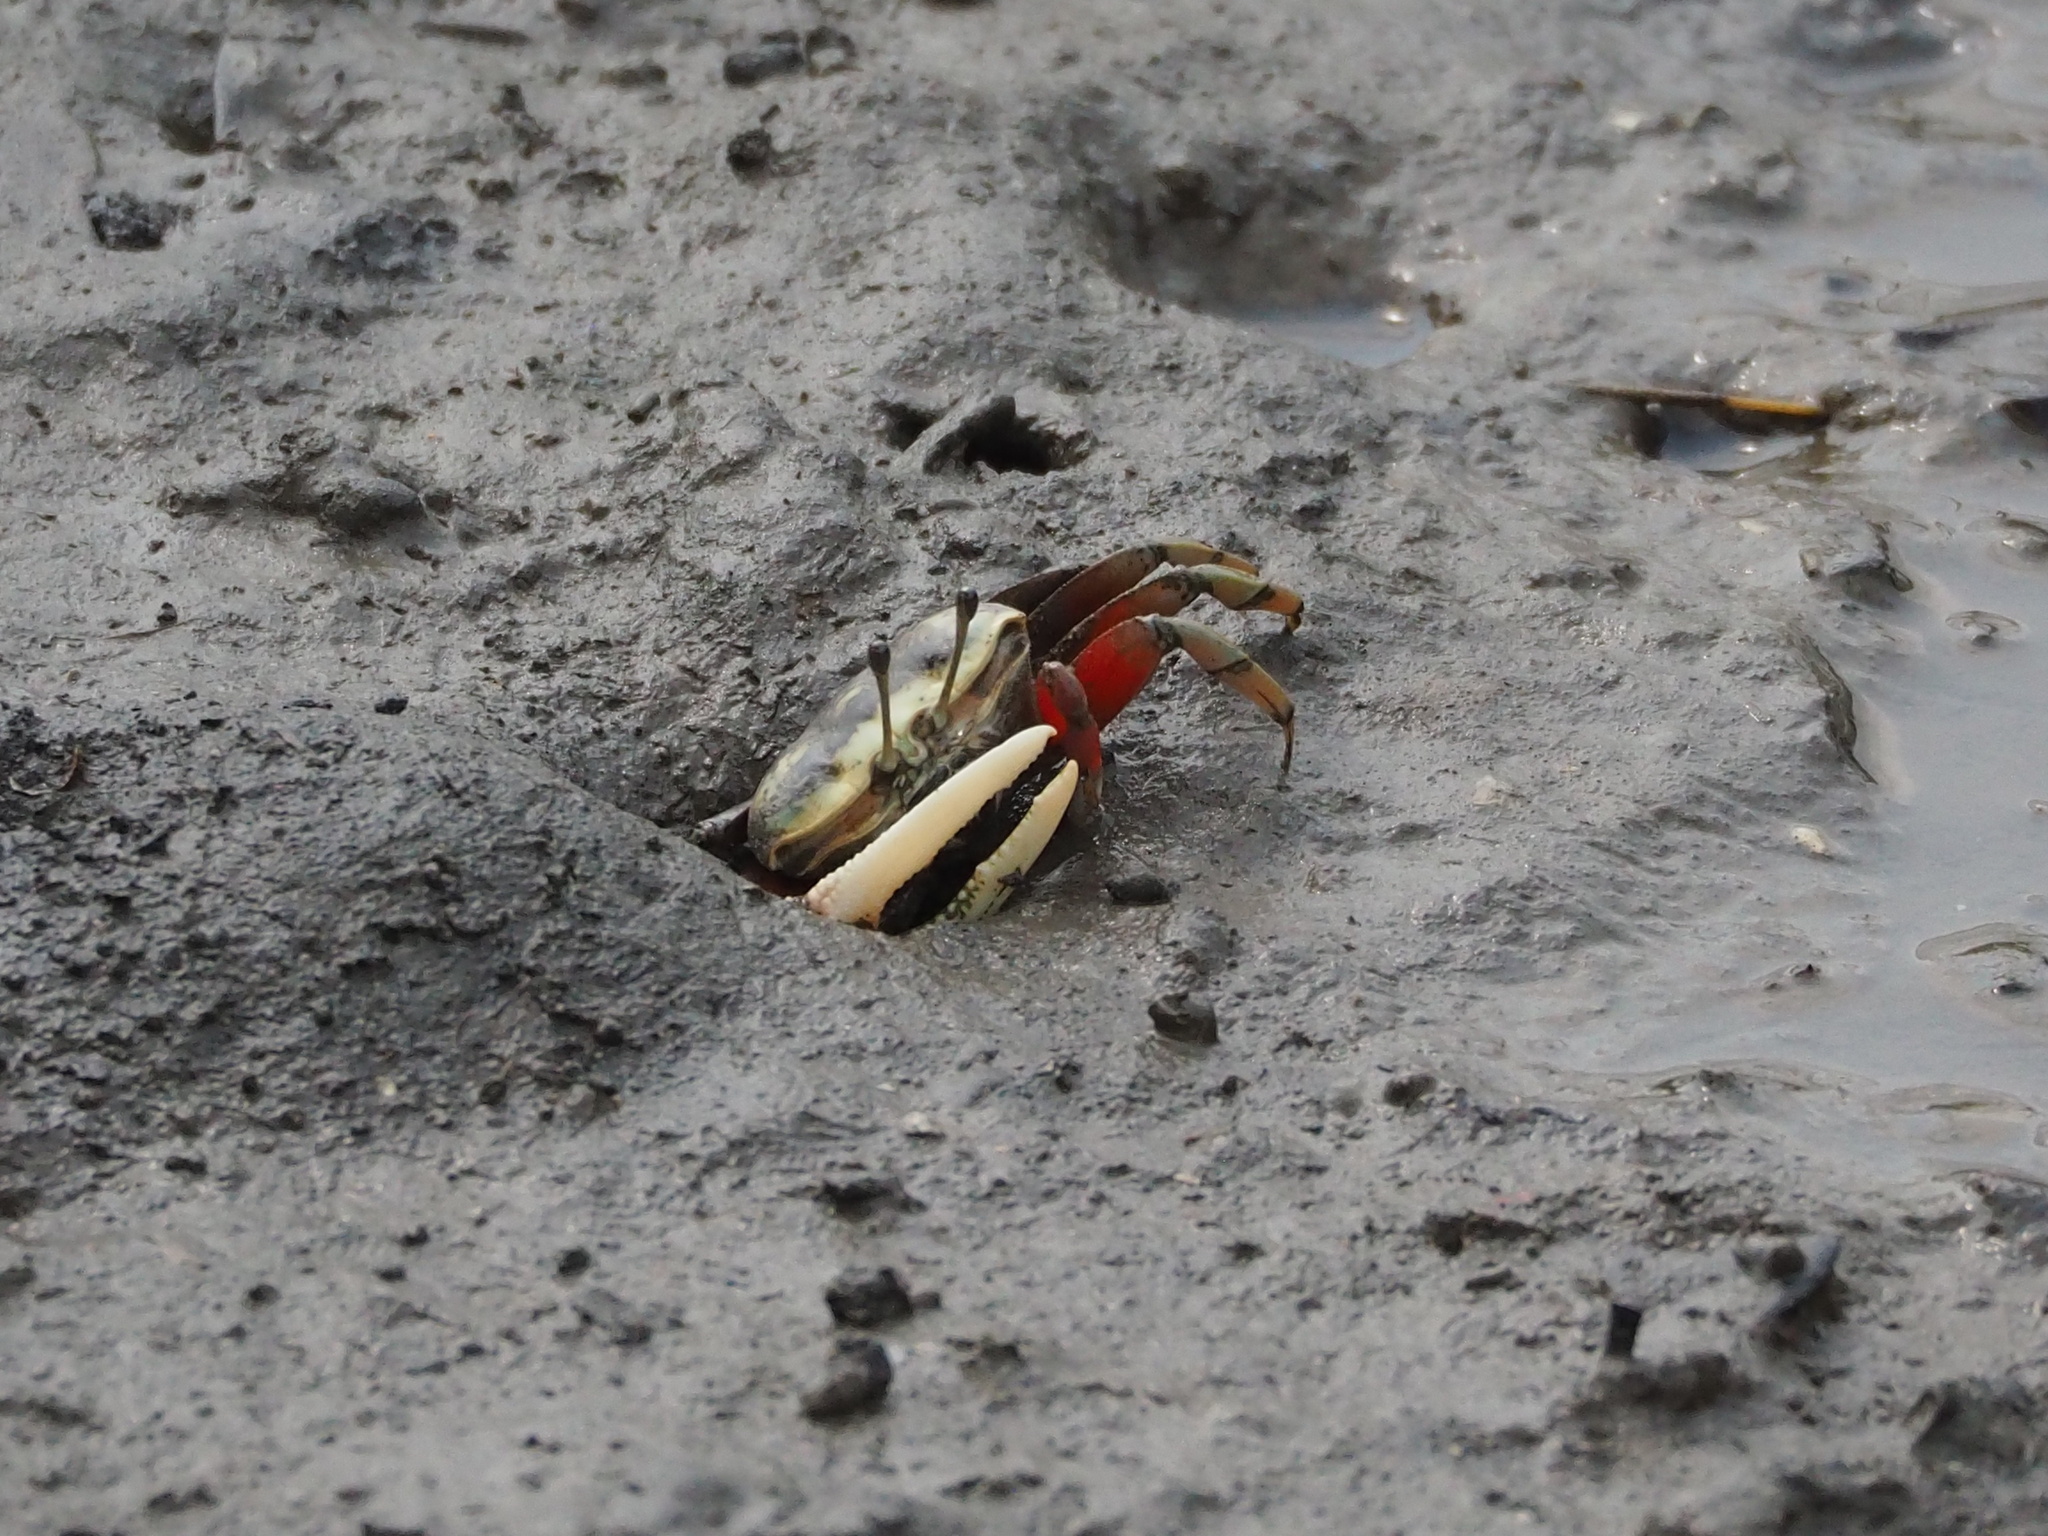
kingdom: Animalia
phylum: Arthropoda
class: Malacostraca
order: Decapoda
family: Ocypodidae
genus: Tubuca
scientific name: Tubuca arcuata
